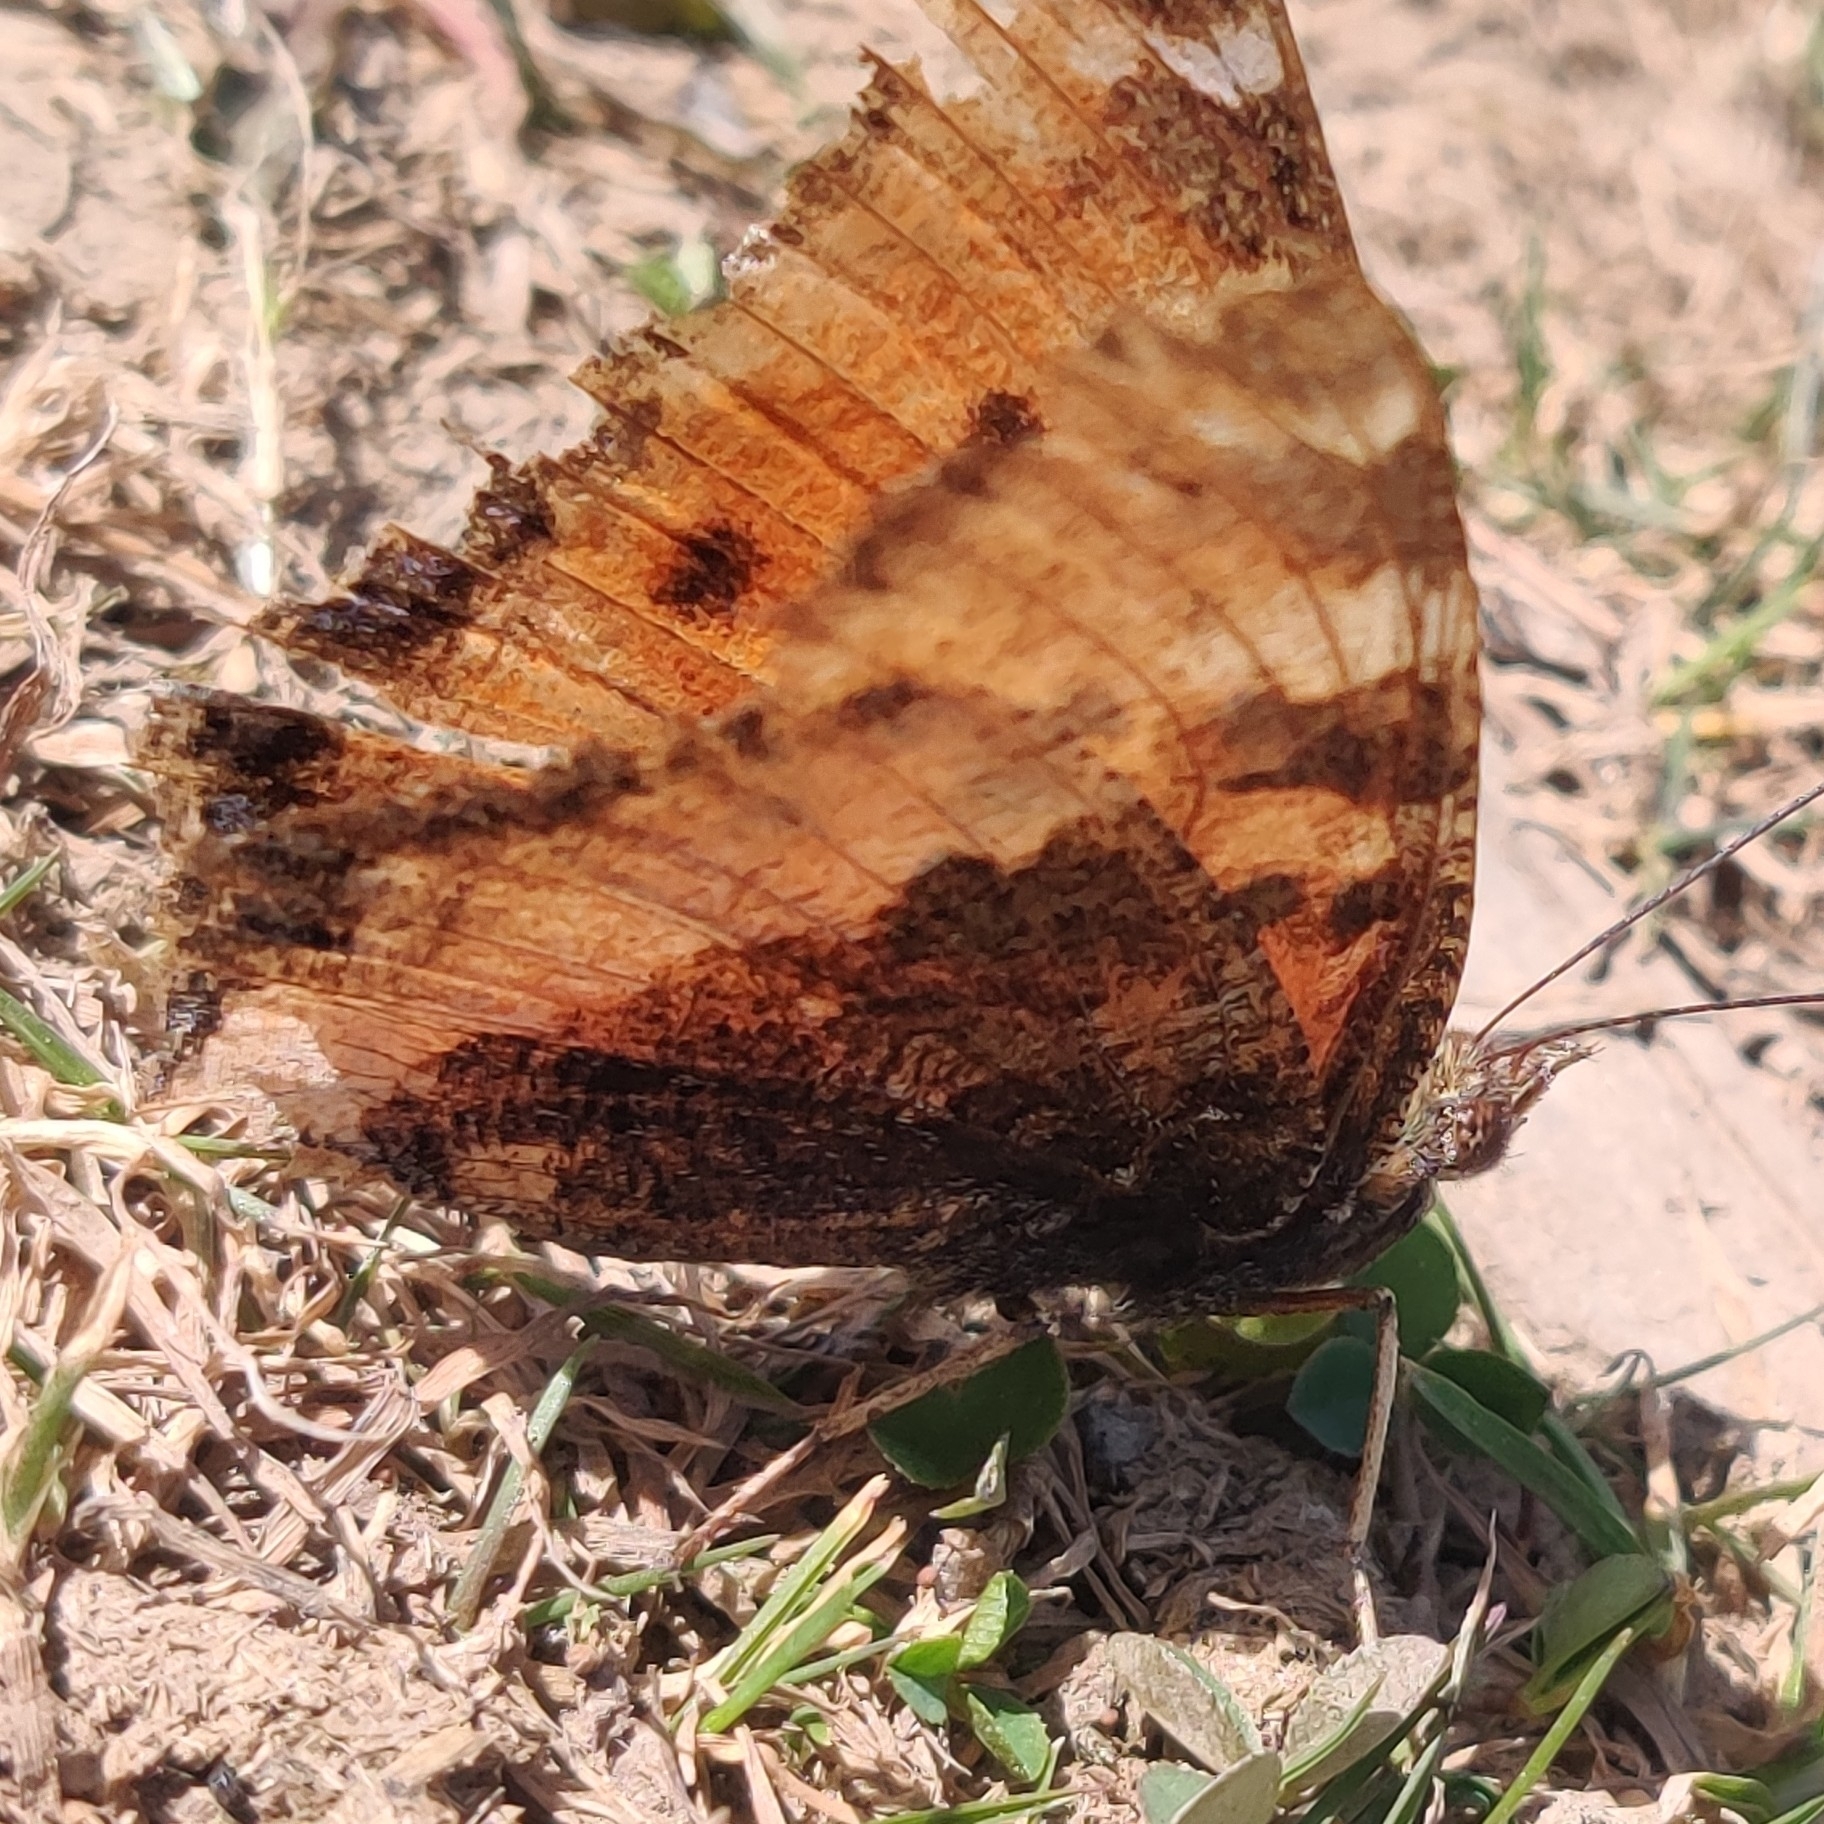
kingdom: Animalia
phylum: Arthropoda
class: Insecta
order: Lepidoptera
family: Nymphalidae
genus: Nymphalis
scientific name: Nymphalis xanthomelas
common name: Scarce tortoiseshell
